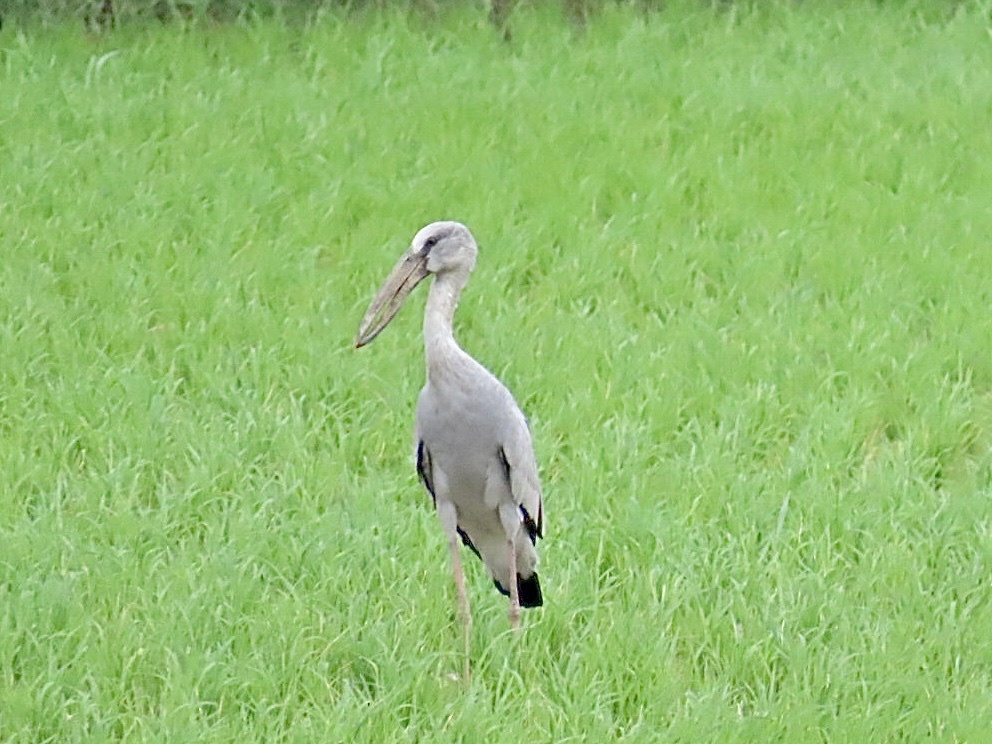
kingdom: Animalia
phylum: Chordata
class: Aves
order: Ciconiiformes
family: Ciconiidae
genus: Anastomus
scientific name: Anastomus oscitans
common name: Asian openbill
